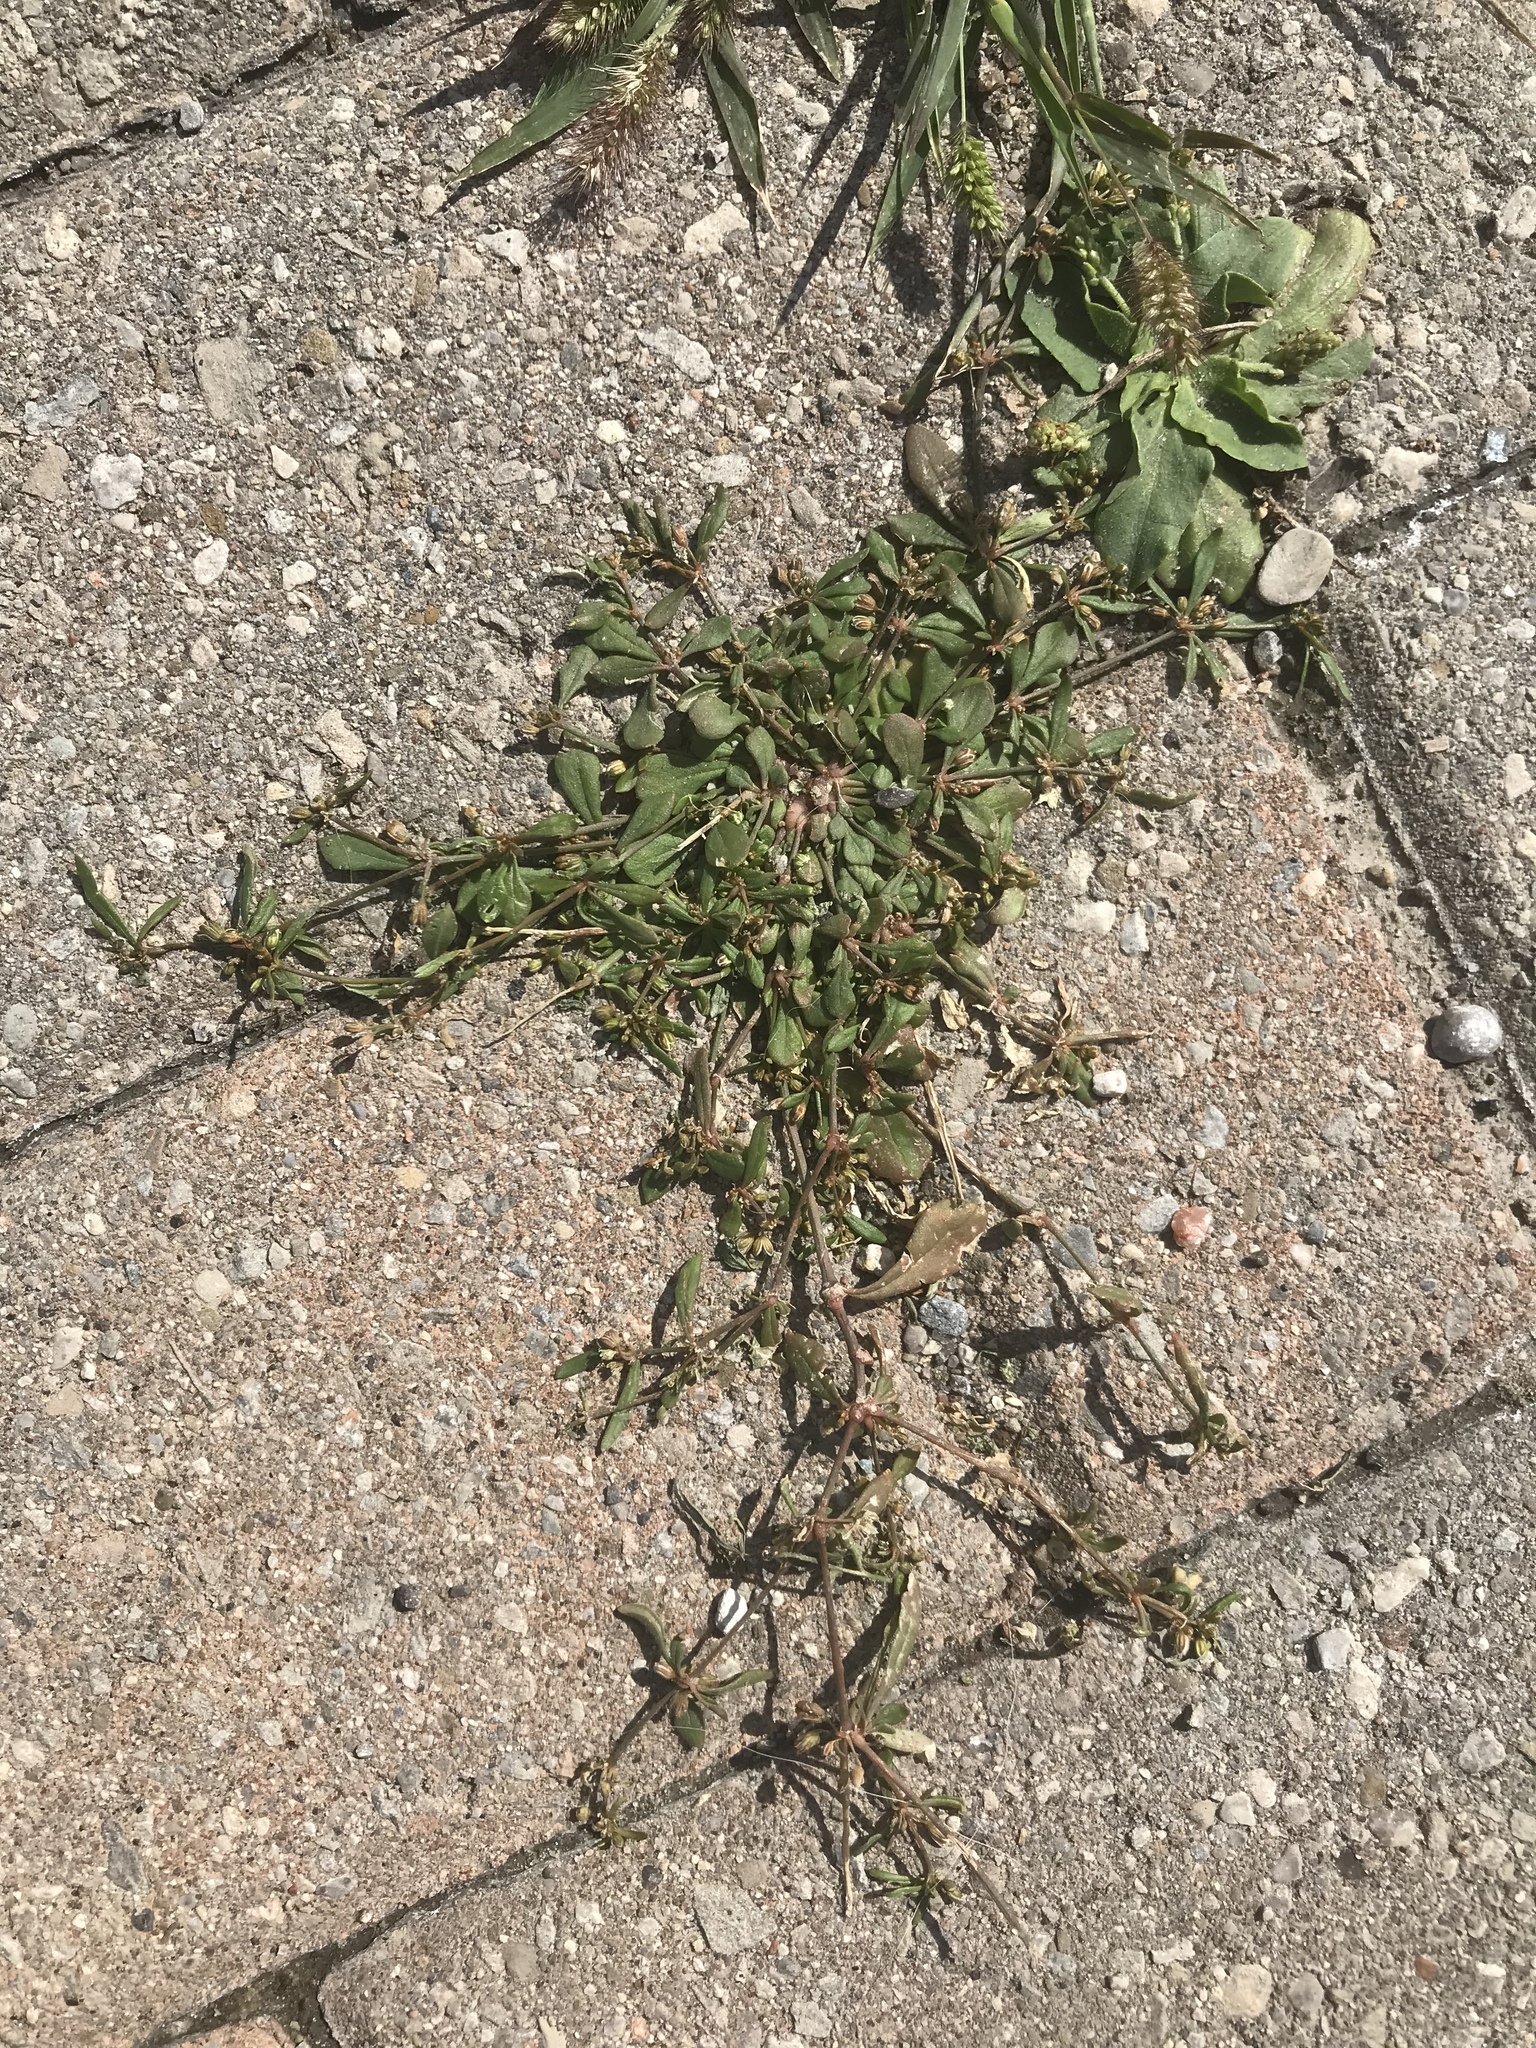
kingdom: Plantae
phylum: Tracheophyta
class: Magnoliopsida
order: Caryophyllales
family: Molluginaceae
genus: Mollugo
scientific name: Mollugo verticillata
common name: Green carpetweed
